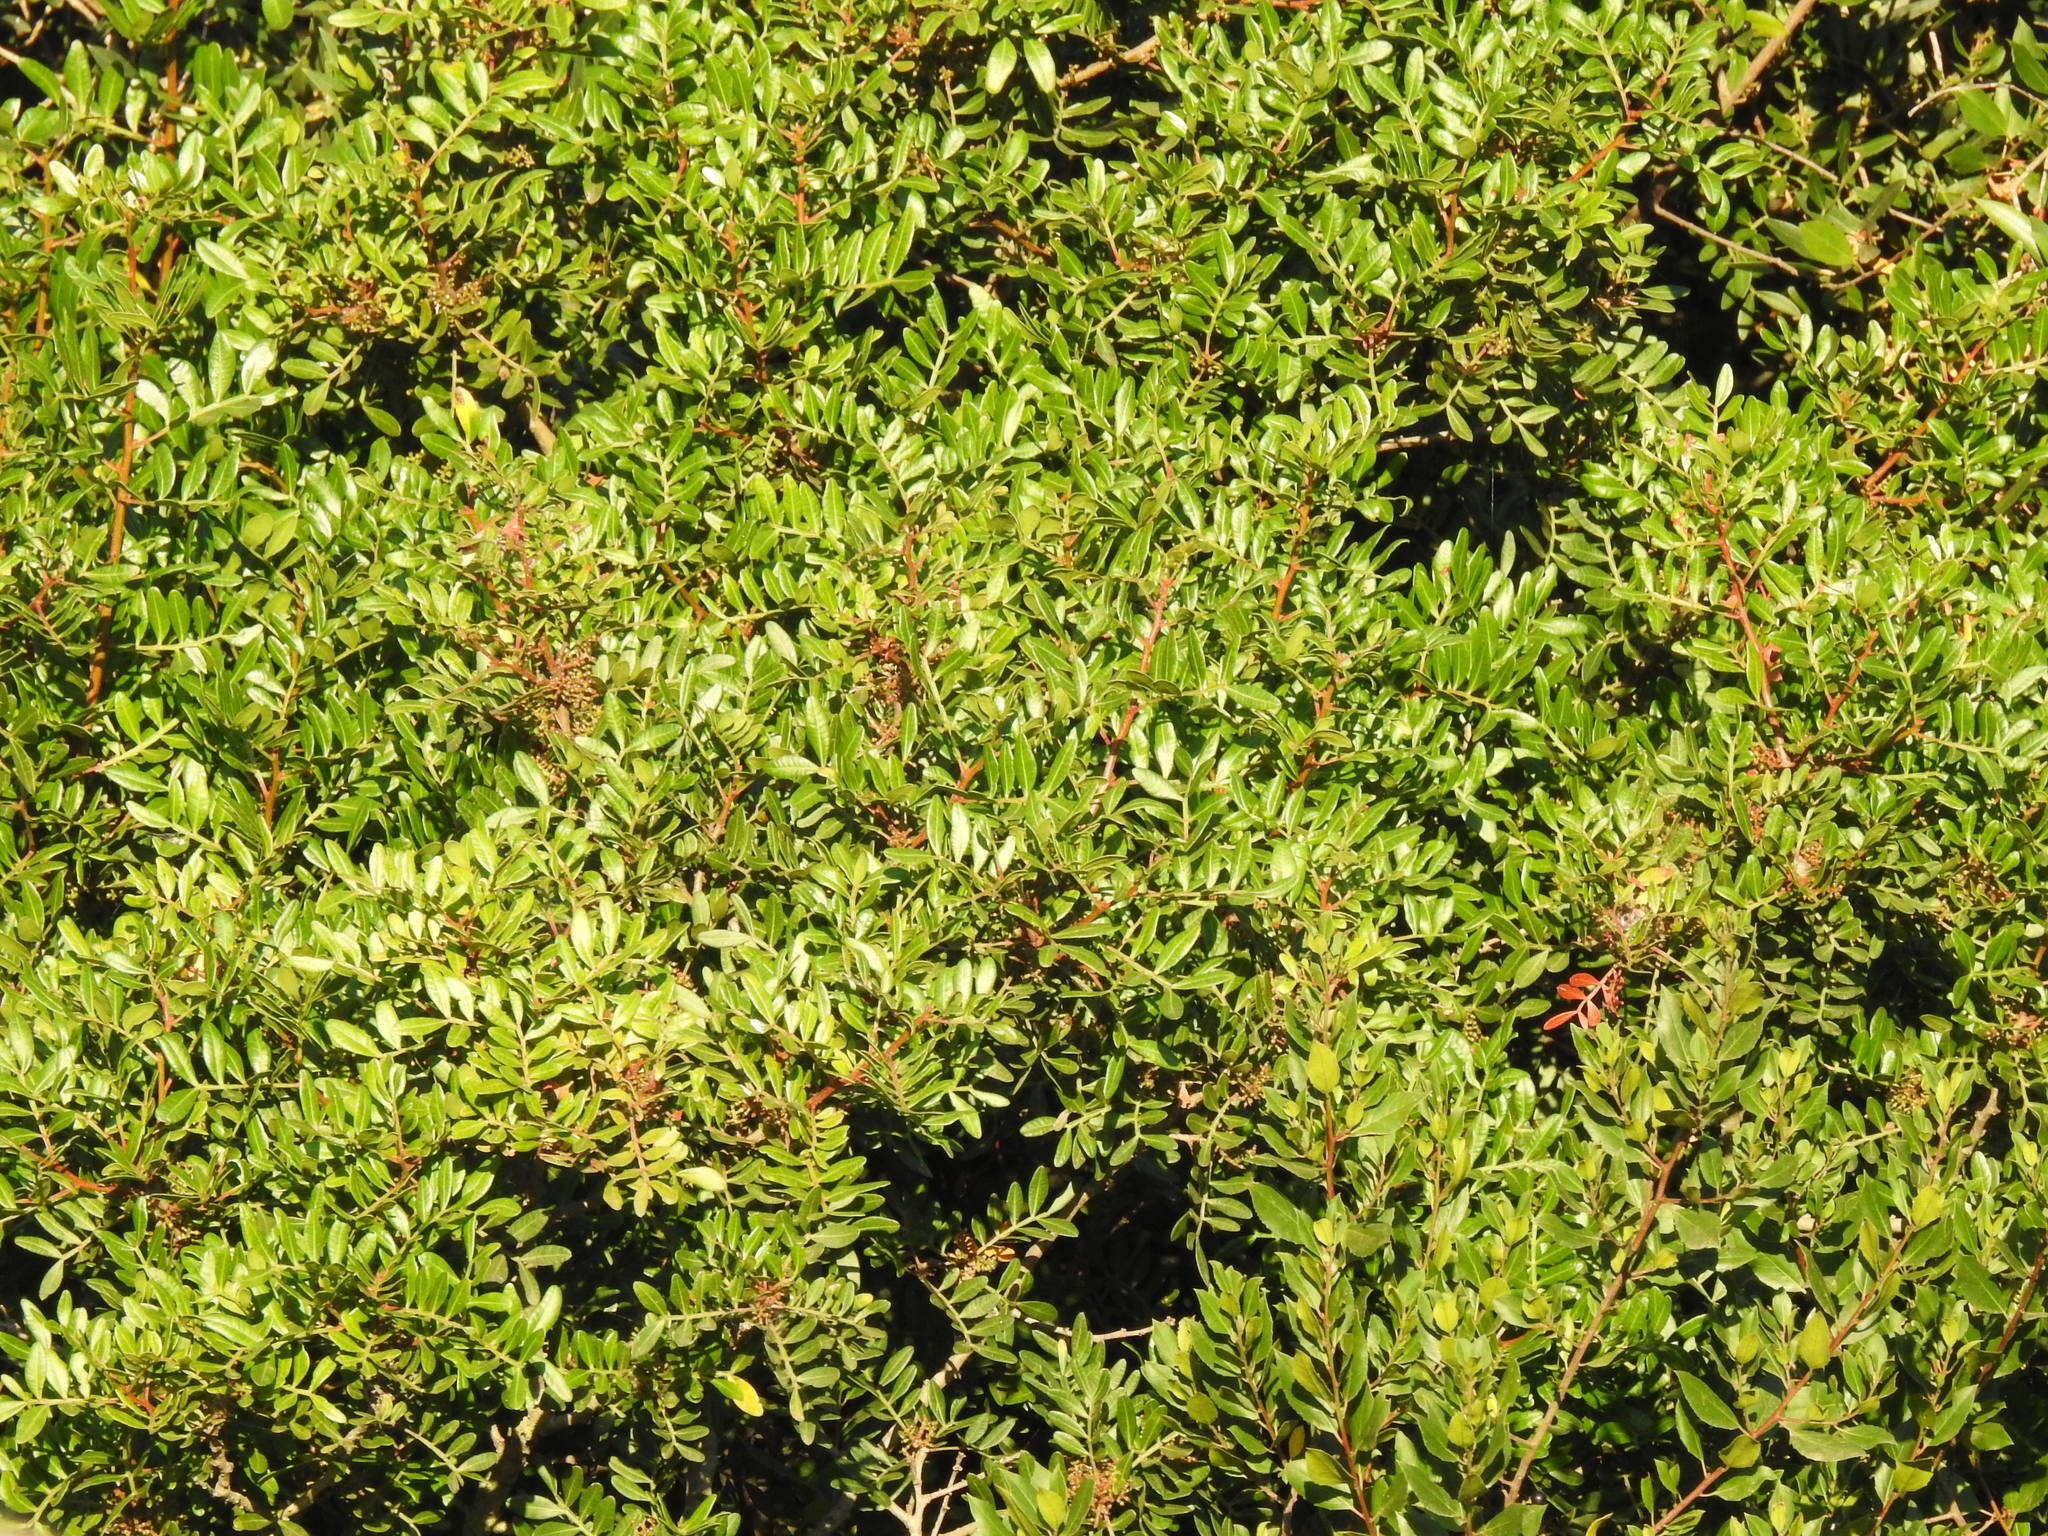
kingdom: Plantae
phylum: Tracheophyta
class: Magnoliopsida
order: Sapindales
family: Anacardiaceae
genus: Pistacia
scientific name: Pistacia lentiscus
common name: Lentisk
